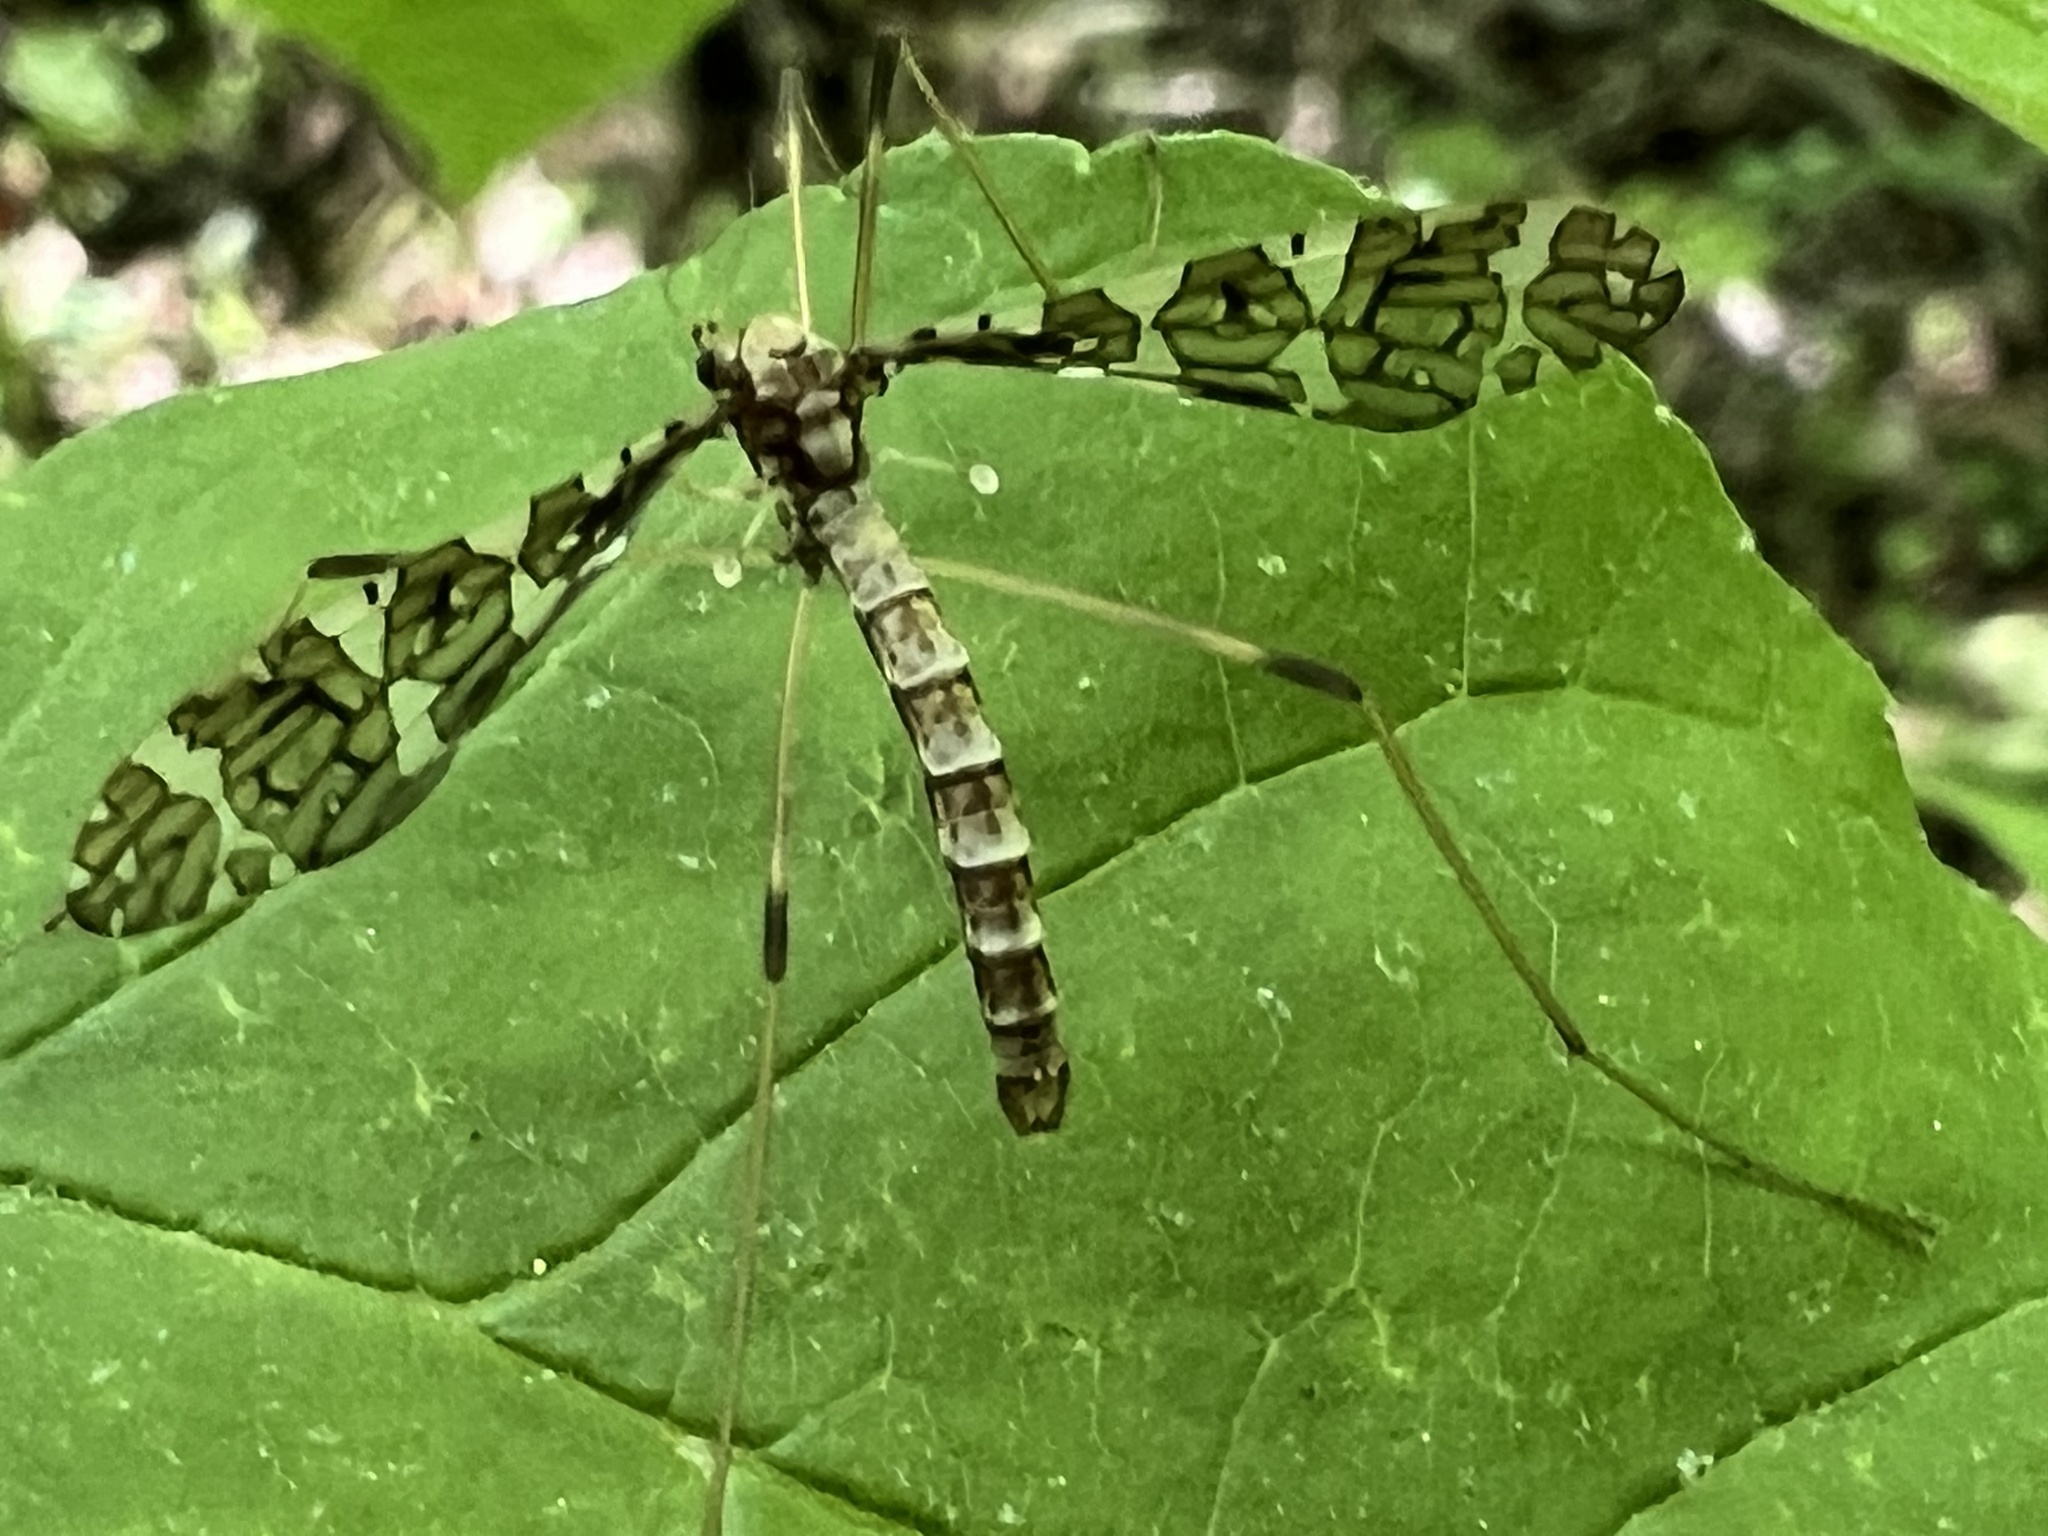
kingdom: Animalia
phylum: Arthropoda
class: Insecta
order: Diptera
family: Limoniidae
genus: Epiphragma
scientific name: Epiphragma fasciapenne
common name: Band-winged crane fly
